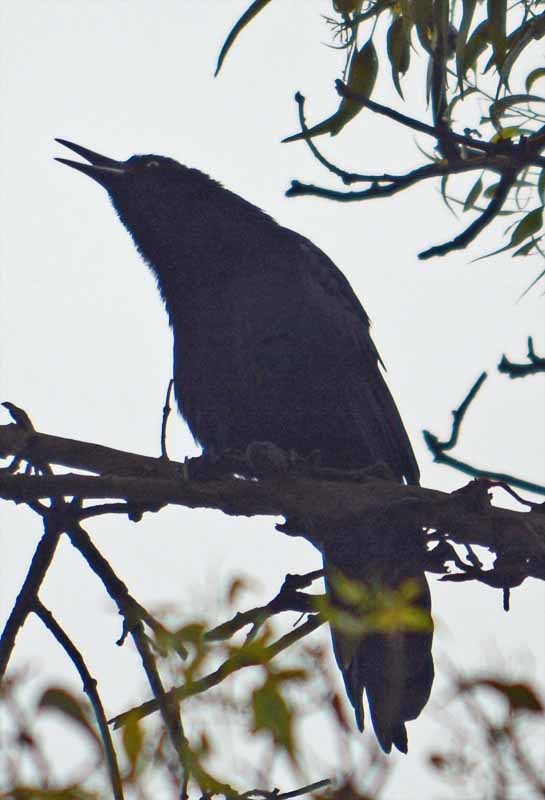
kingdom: Animalia
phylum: Chordata
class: Aves
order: Passeriformes
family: Icteridae
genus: Quiscalus
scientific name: Quiscalus mexicanus
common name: Great-tailed grackle
